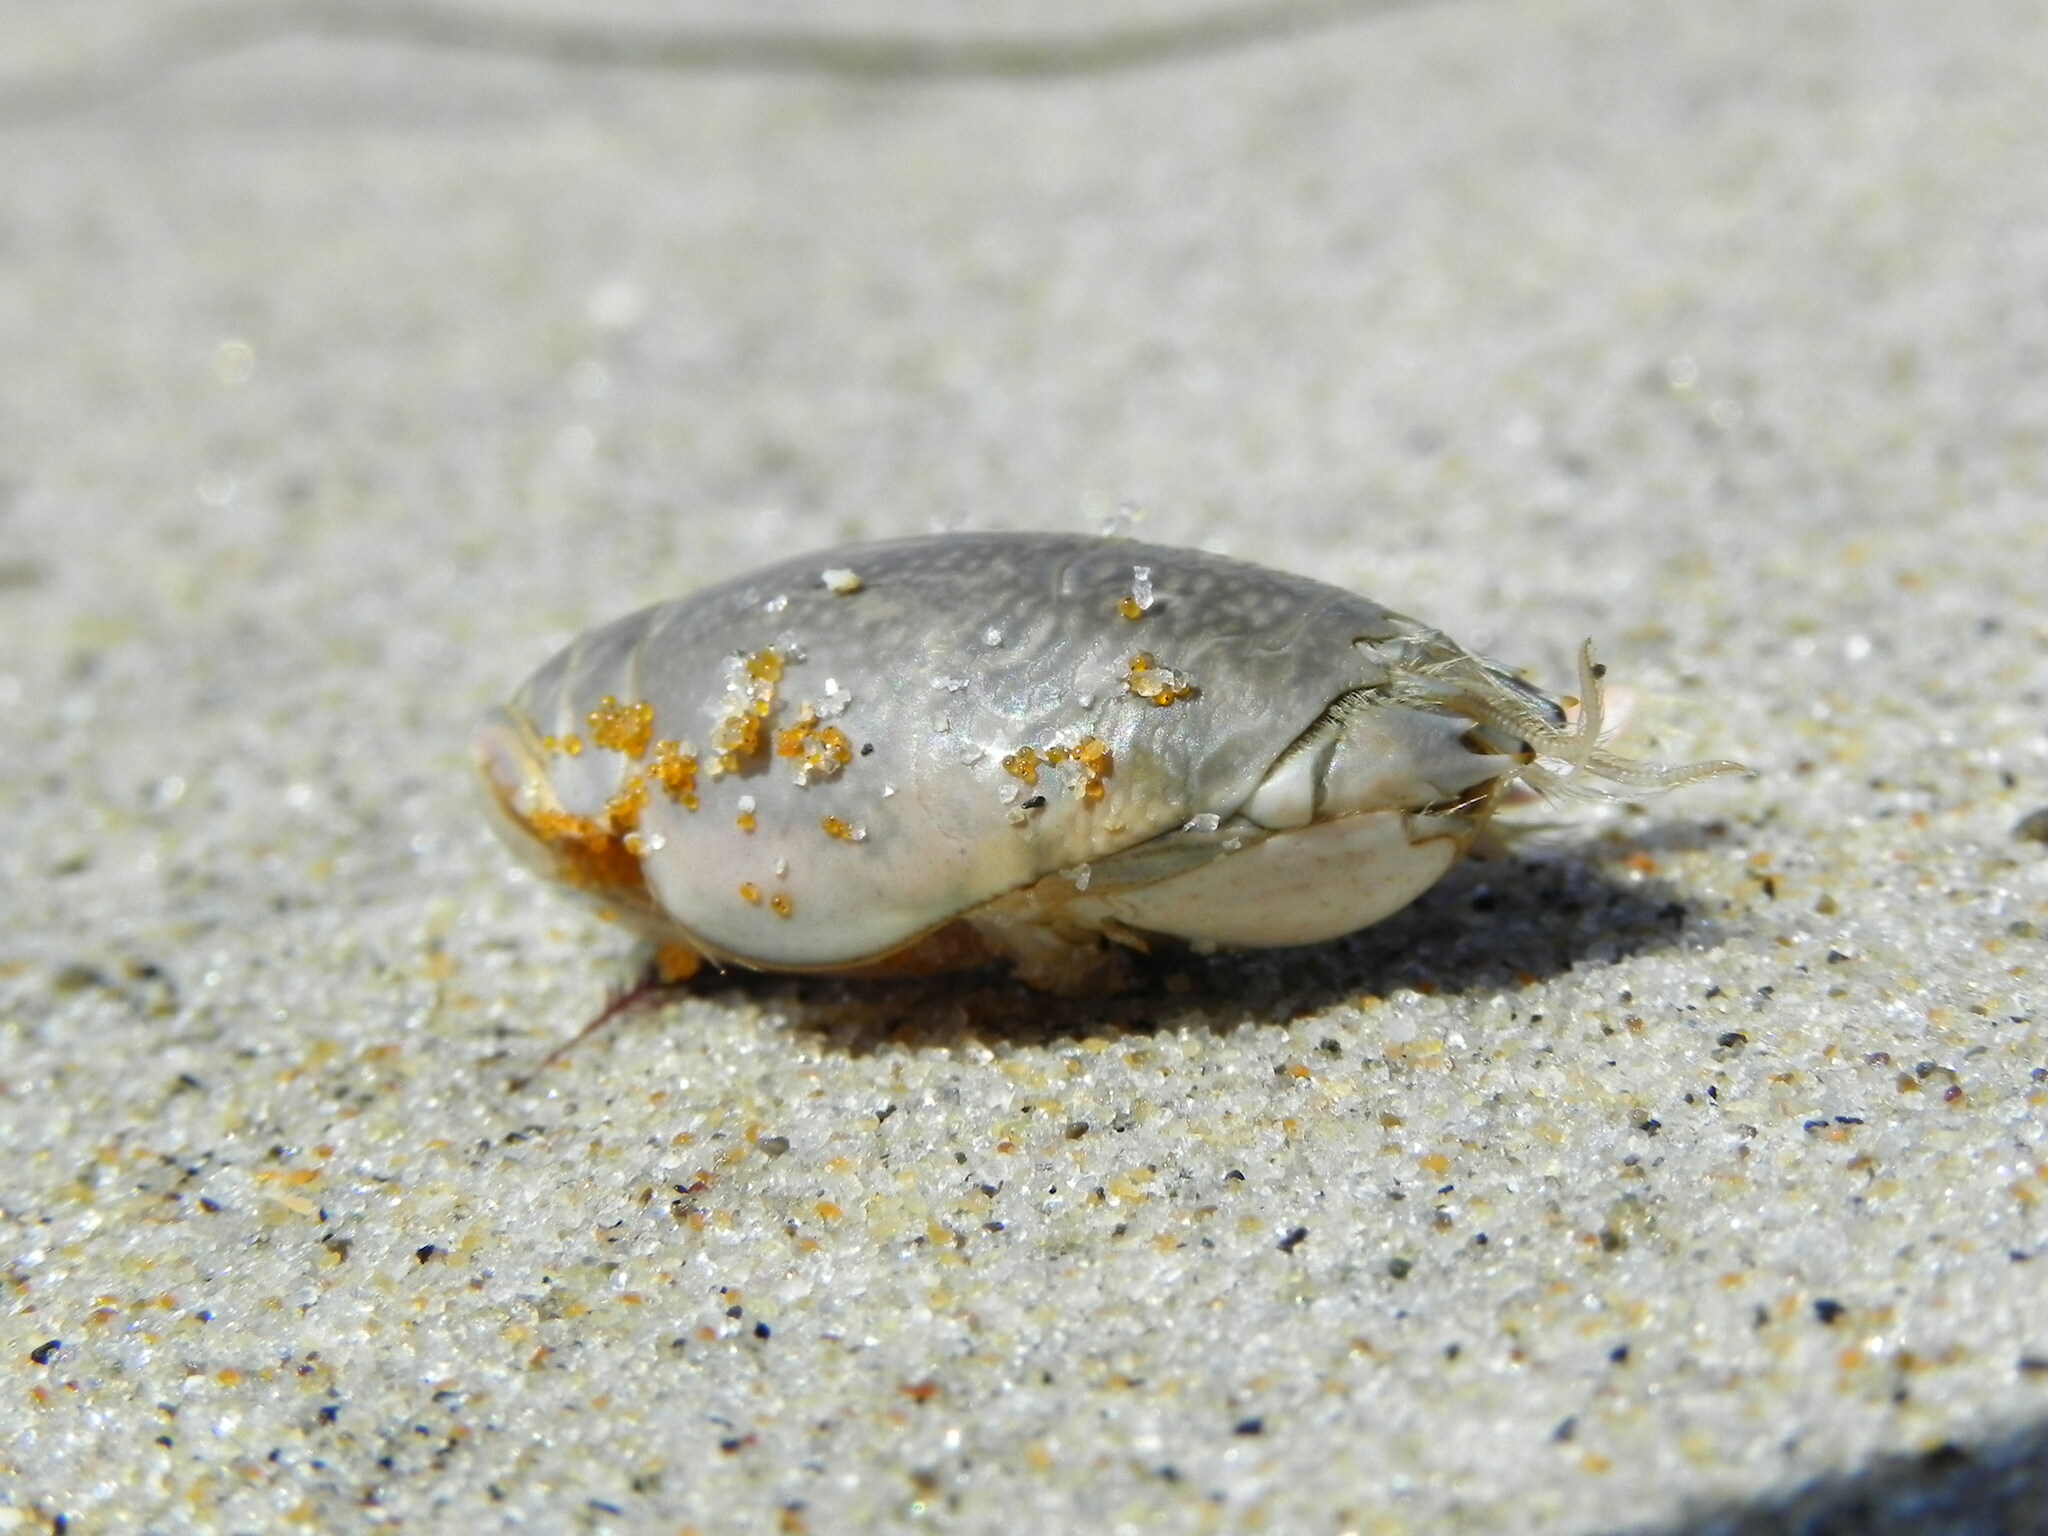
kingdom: Animalia
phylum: Arthropoda
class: Malacostraca
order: Decapoda
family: Hippidae
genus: Emerita
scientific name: Emerita analoga
